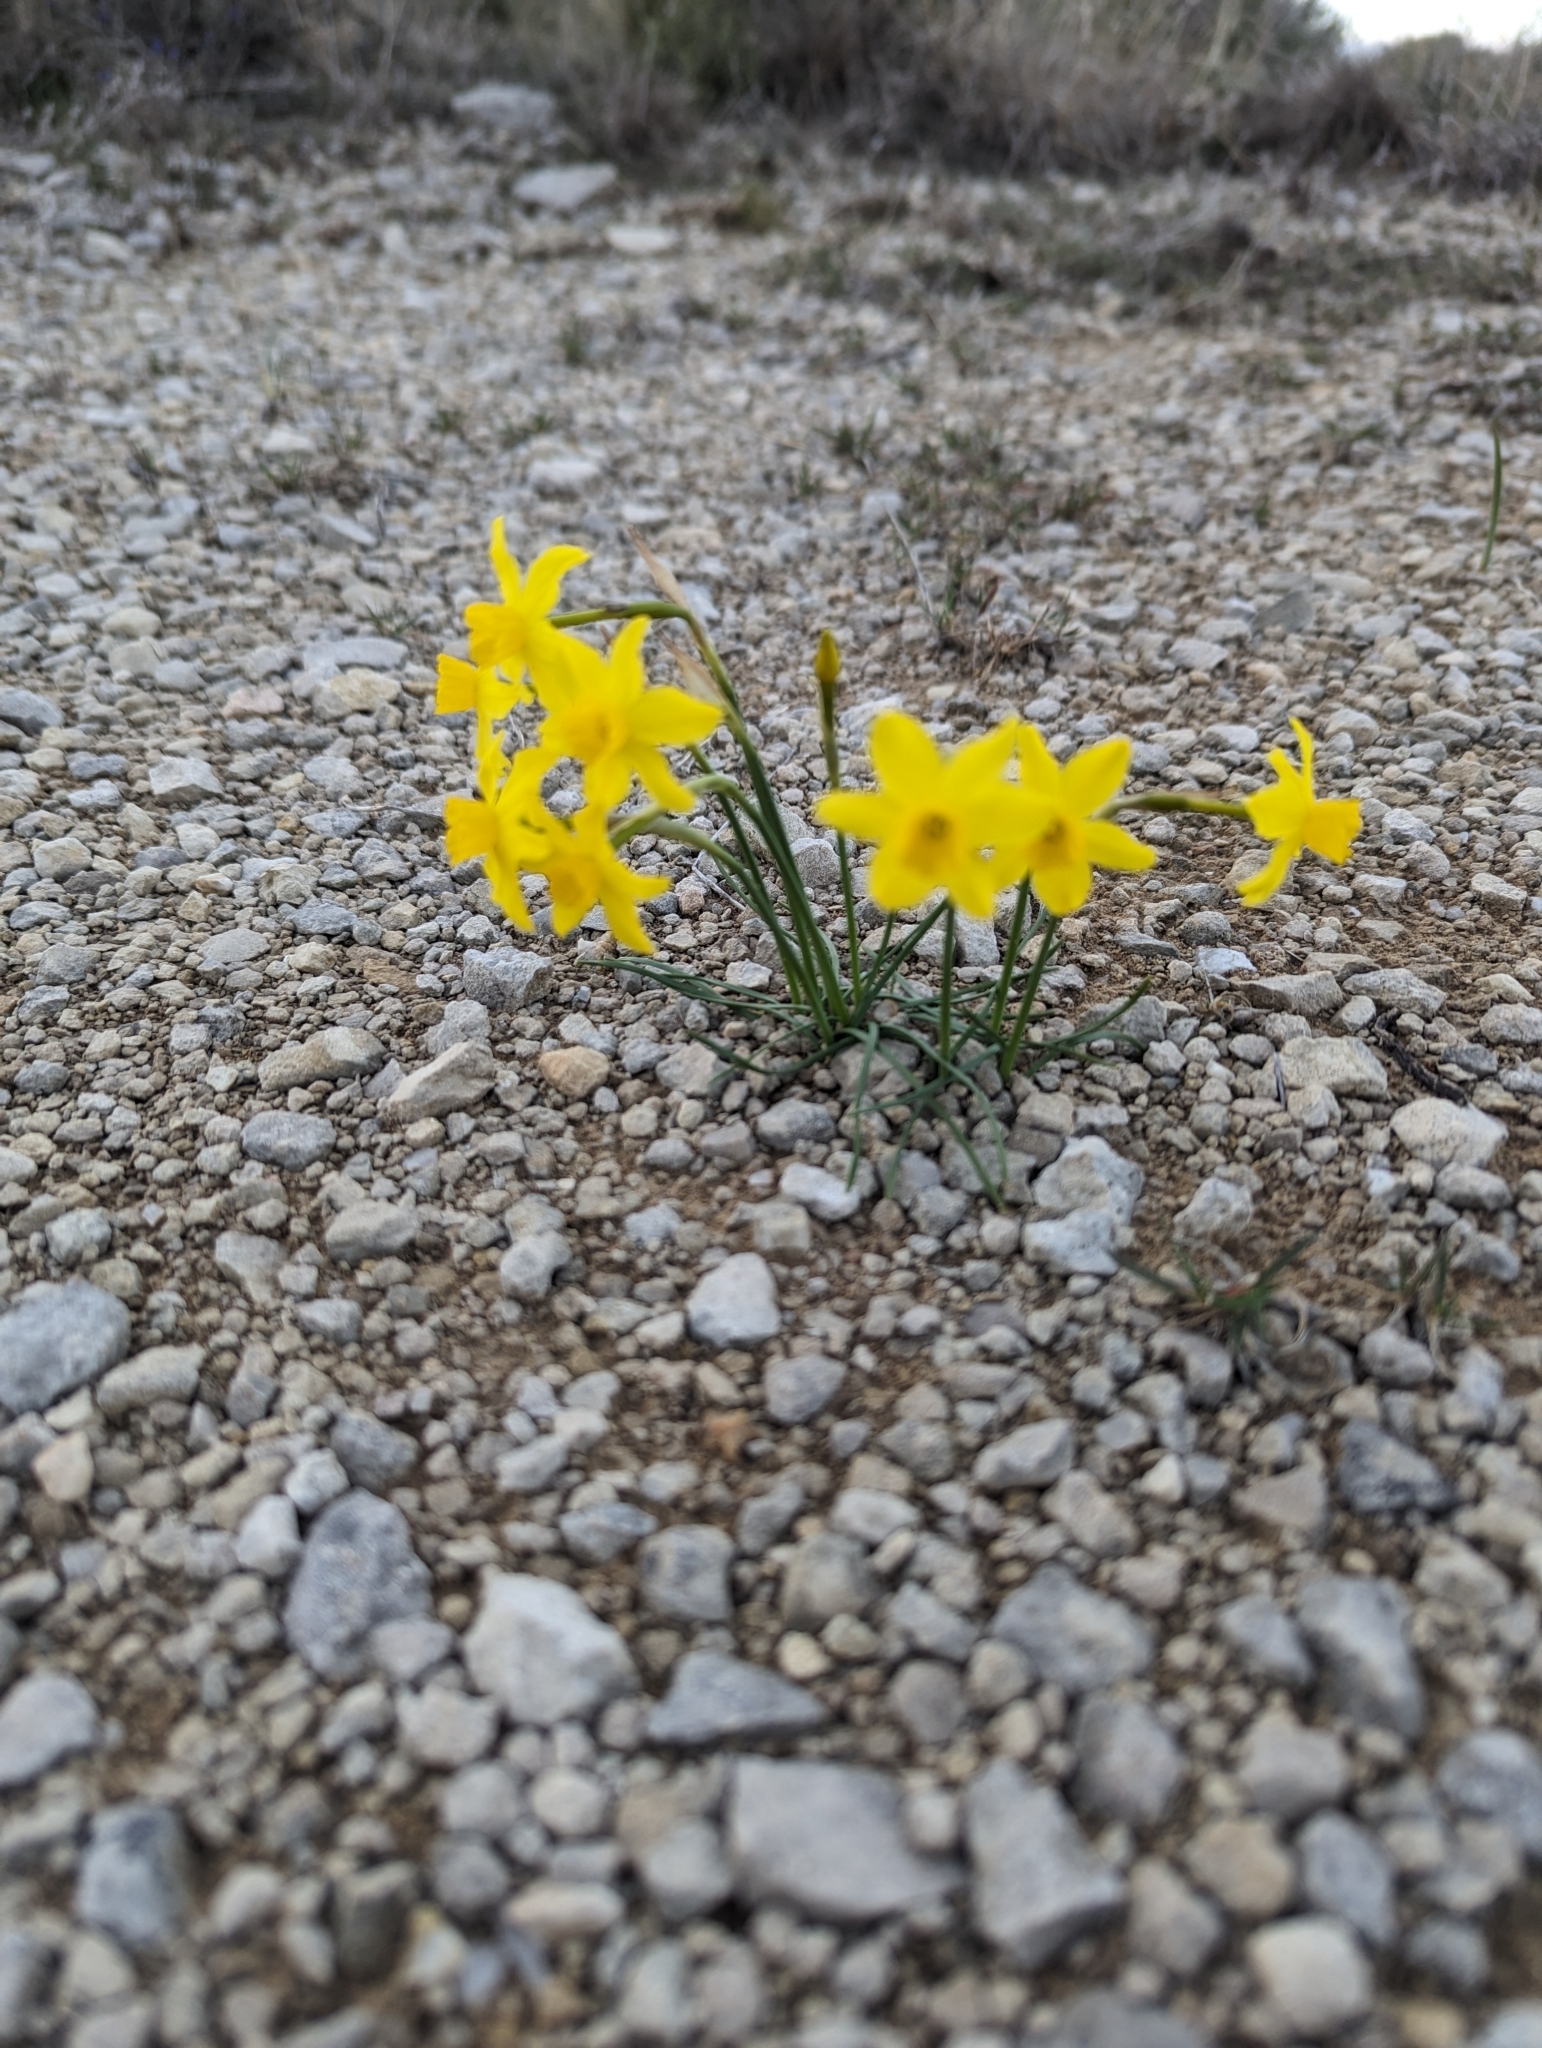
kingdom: Plantae
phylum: Tracheophyta
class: Liliopsida
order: Asparagales
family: Amaryllidaceae
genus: Narcissus
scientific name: Narcissus assoanus
